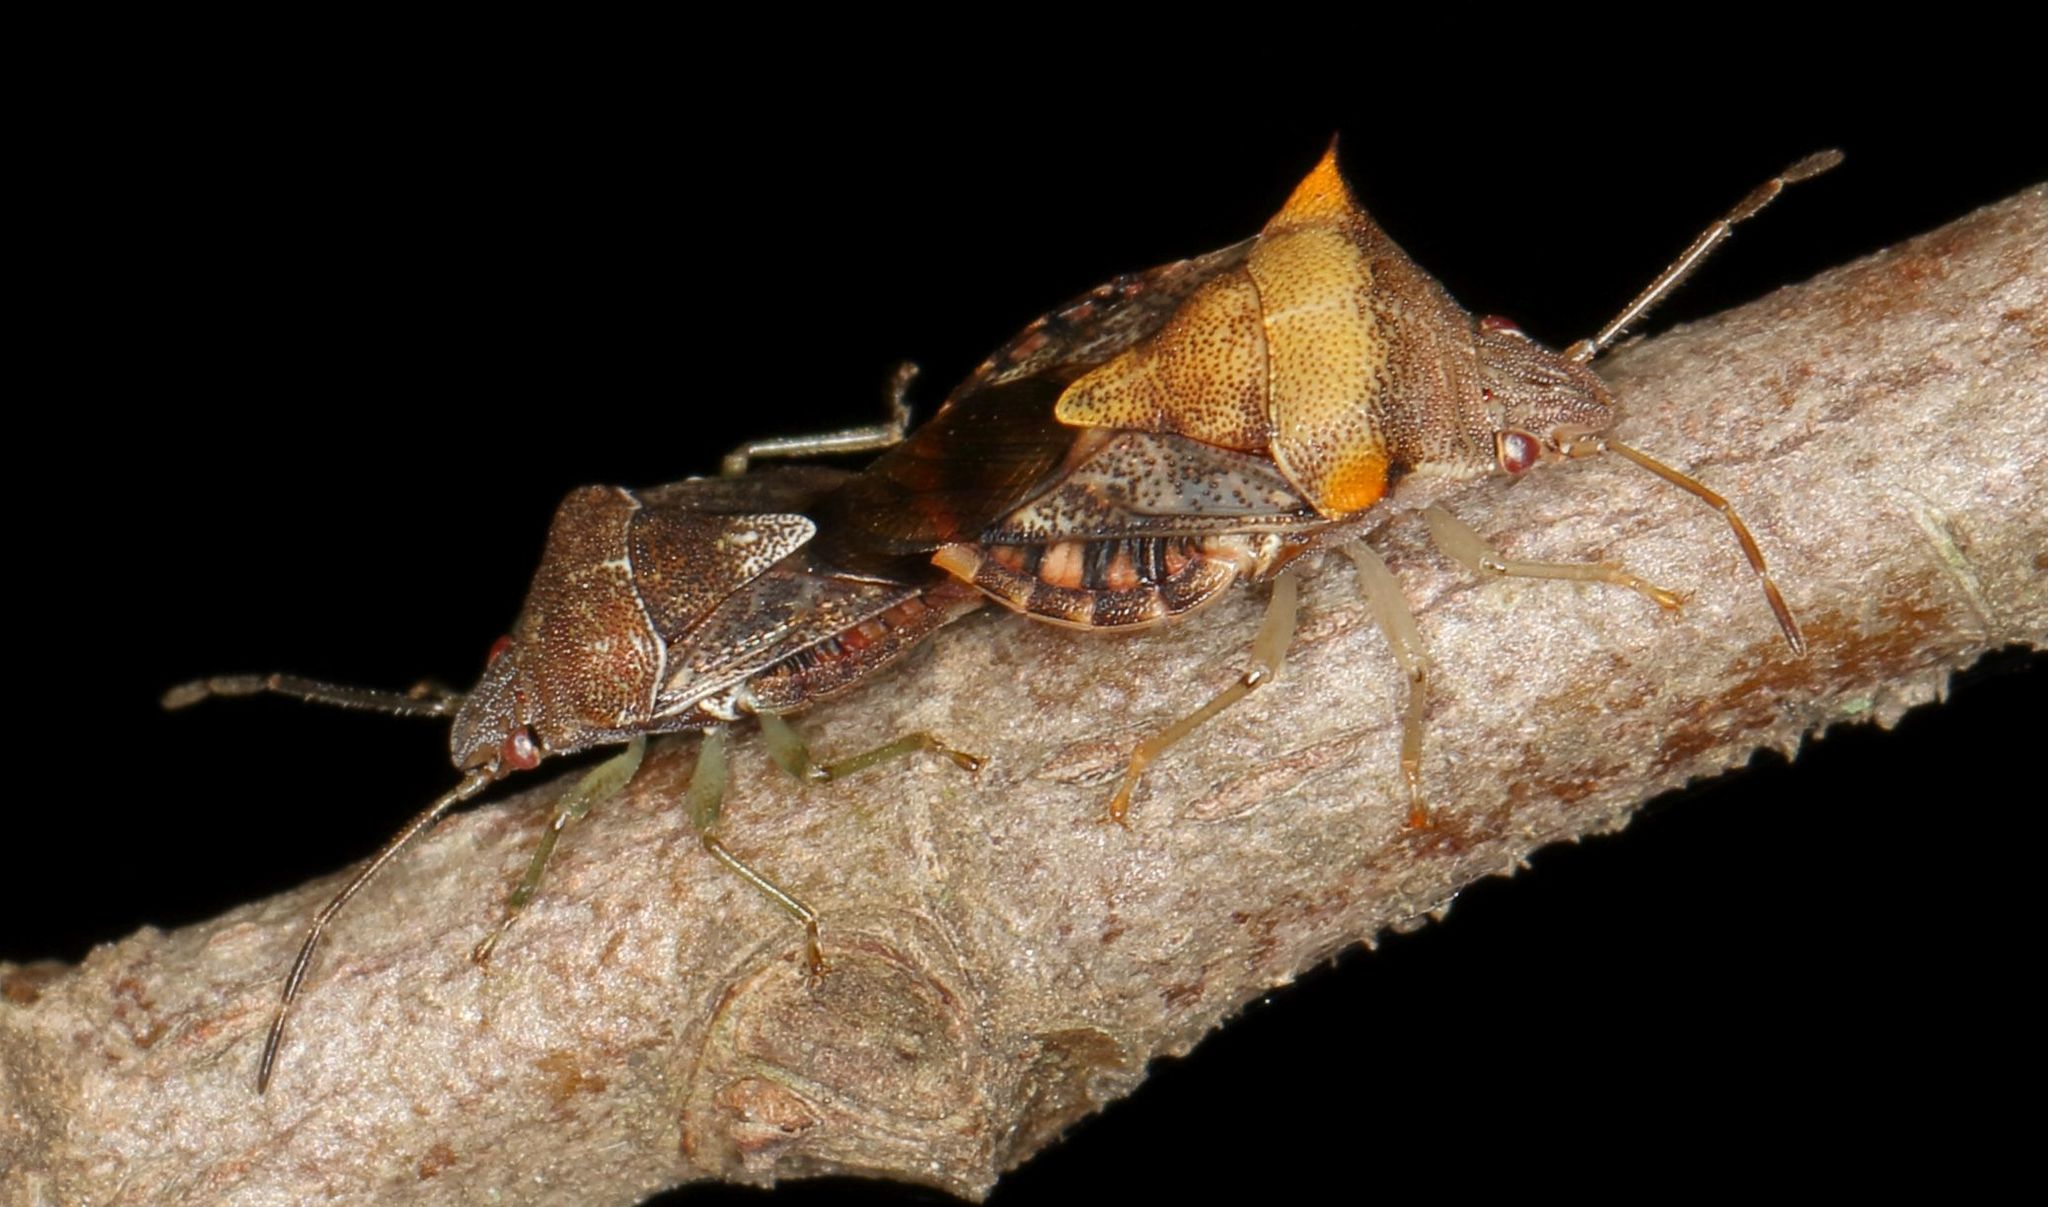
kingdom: Animalia
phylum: Arthropoda
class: Insecta
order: Hemiptera
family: Acanthosomatidae
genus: Uhlunga
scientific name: Uhlunga typica
